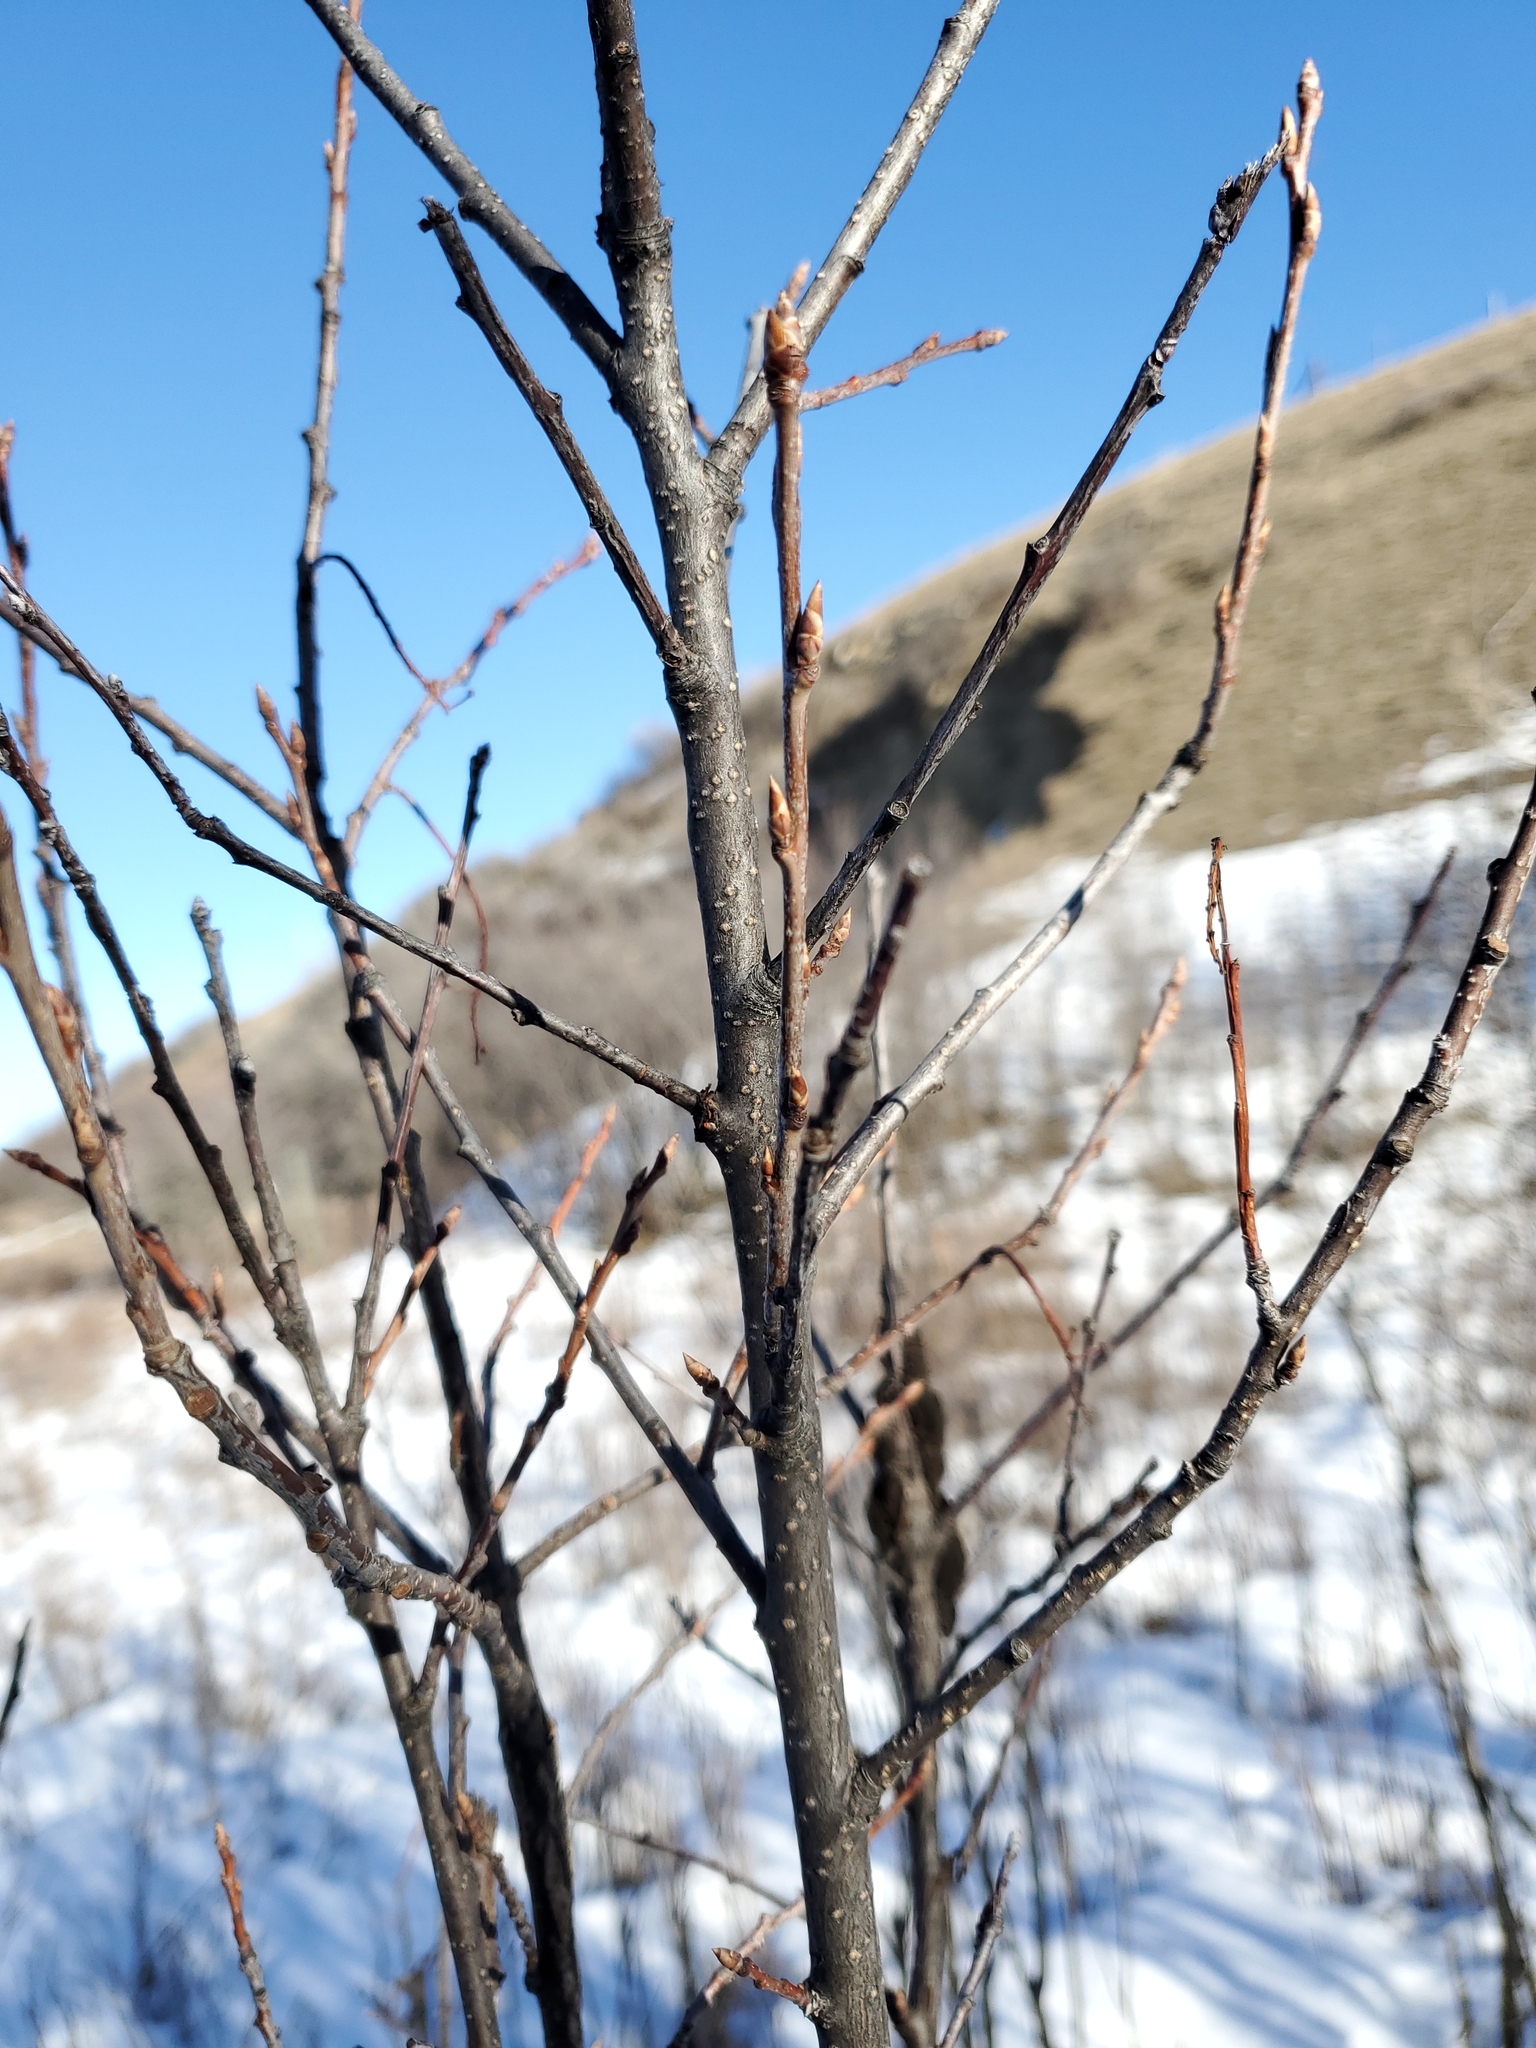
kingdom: Plantae
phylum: Tracheophyta
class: Magnoliopsida
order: Rosales
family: Rosaceae
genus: Prunus
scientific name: Prunus virginiana
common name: Chokecherry
